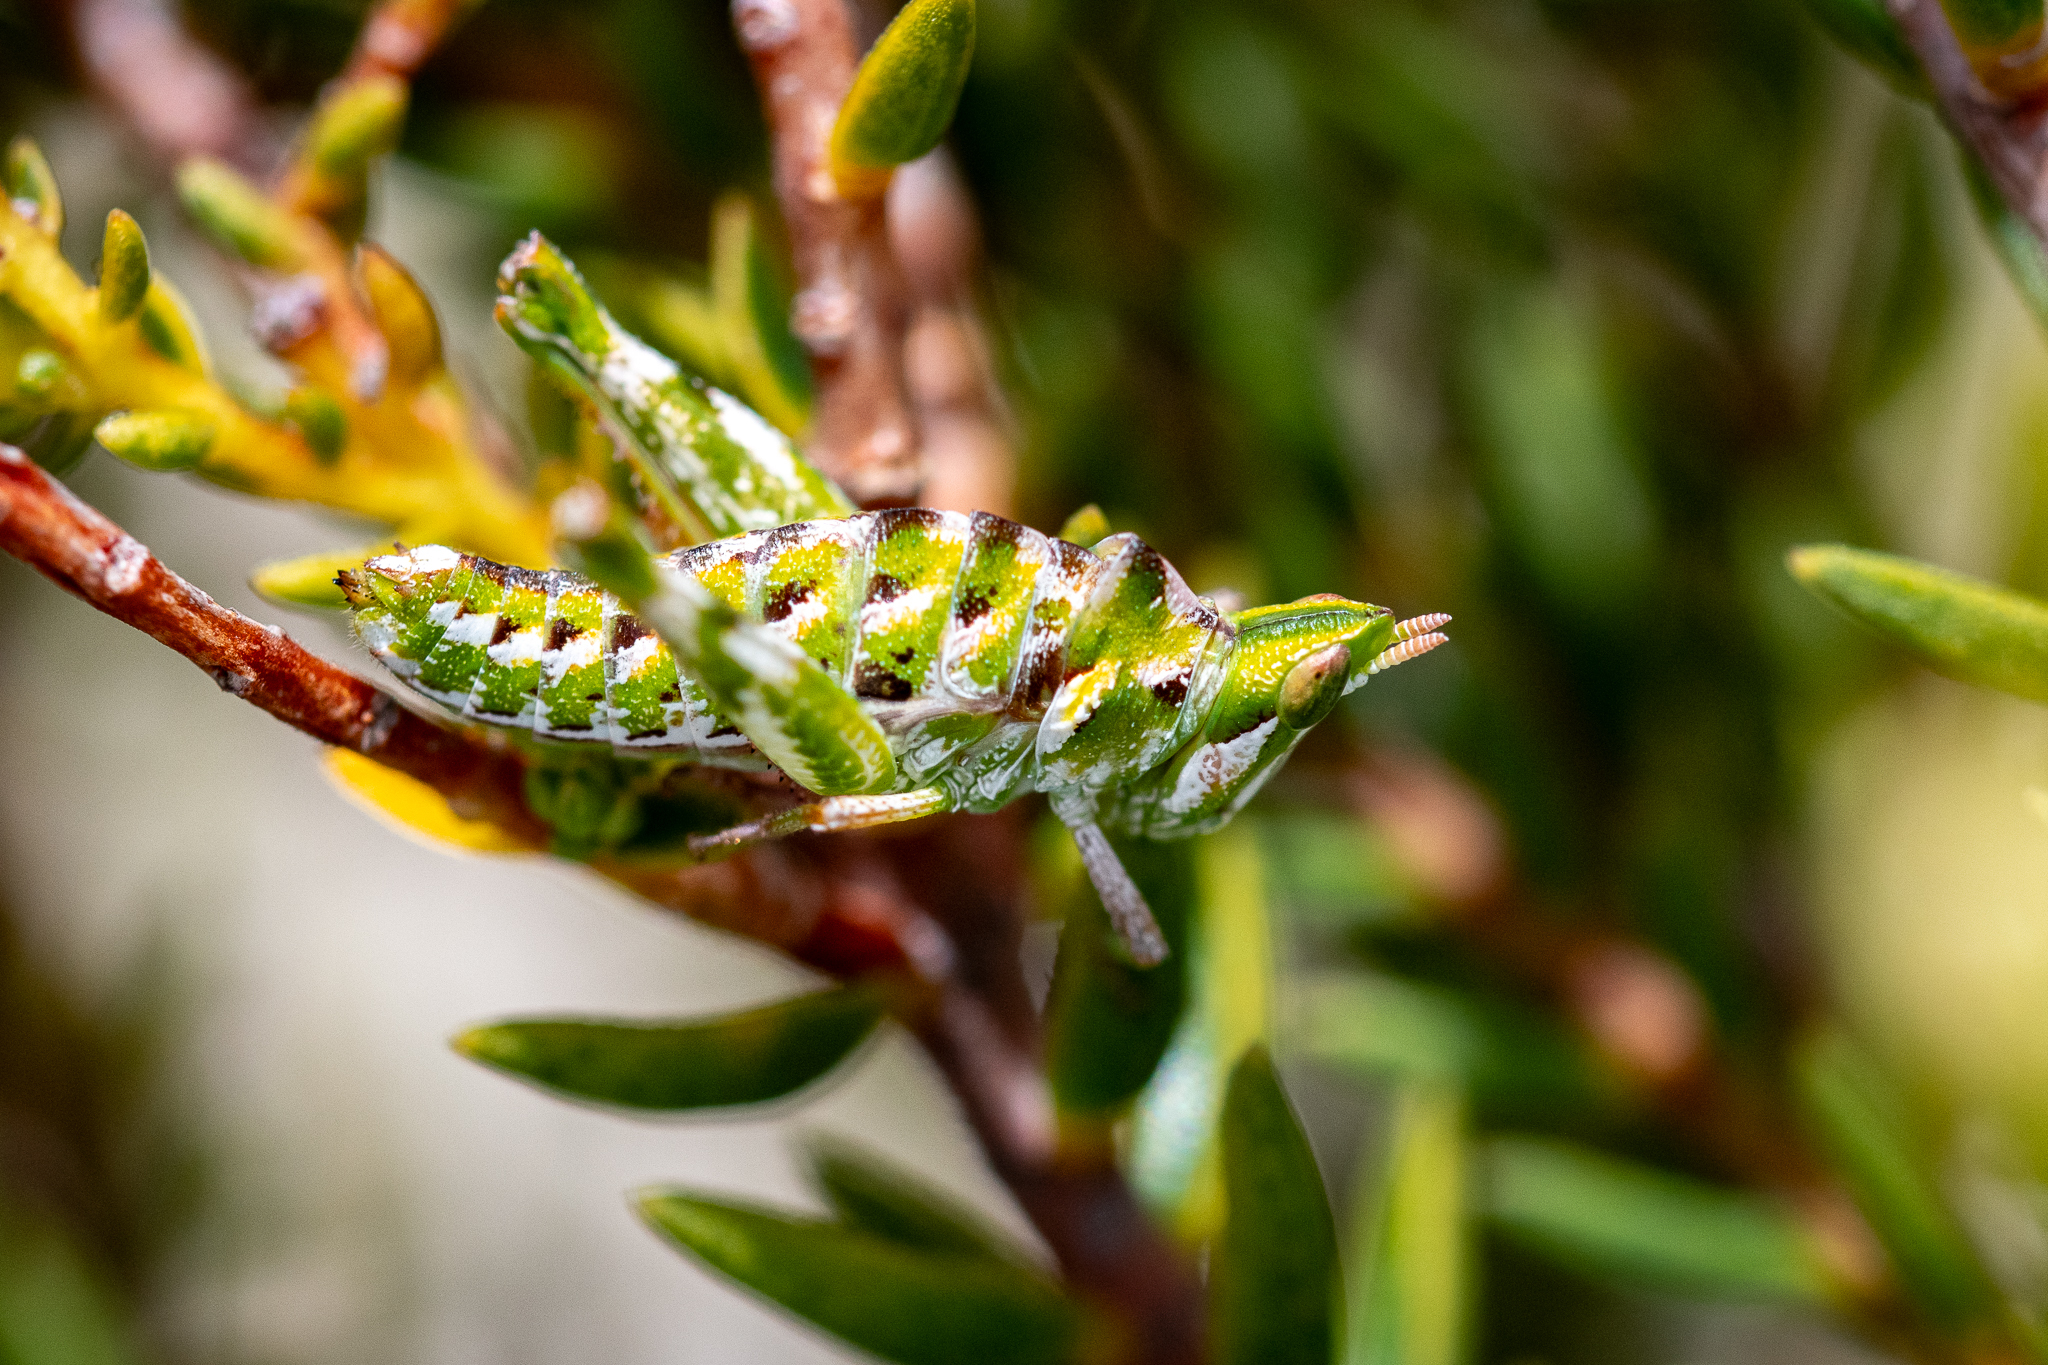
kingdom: Animalia
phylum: Arthropoda
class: Insecta
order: Orthoptera
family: Thericleidae
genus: Thericlesiella
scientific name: Thericlesiella meridionalis
